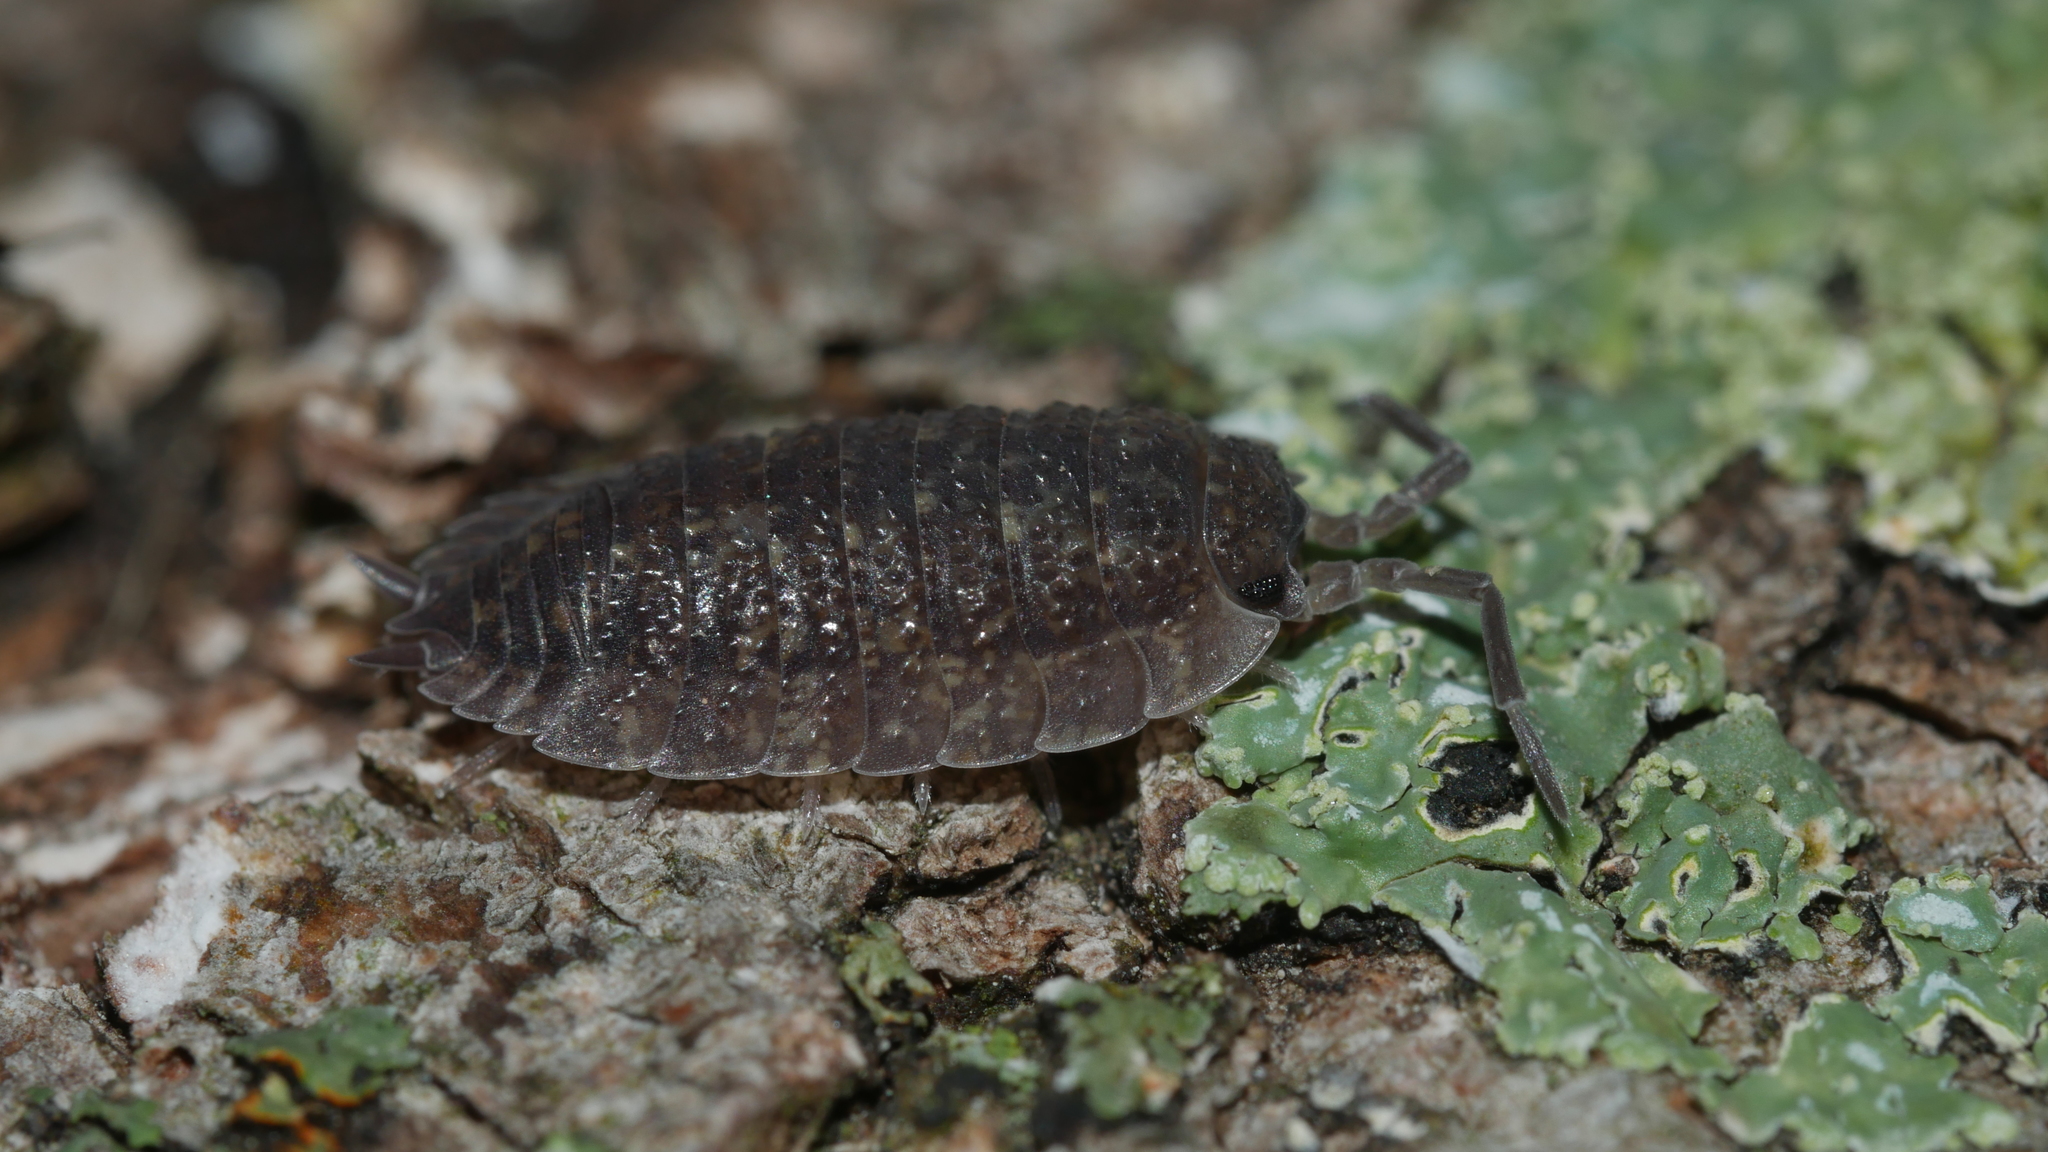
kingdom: Animalia
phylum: Arthropoda
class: Malacostraca
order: Isopoda
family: Porcellionidae
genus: Porcellio
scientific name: Porcellio scaber
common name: Common rough woodlouse
